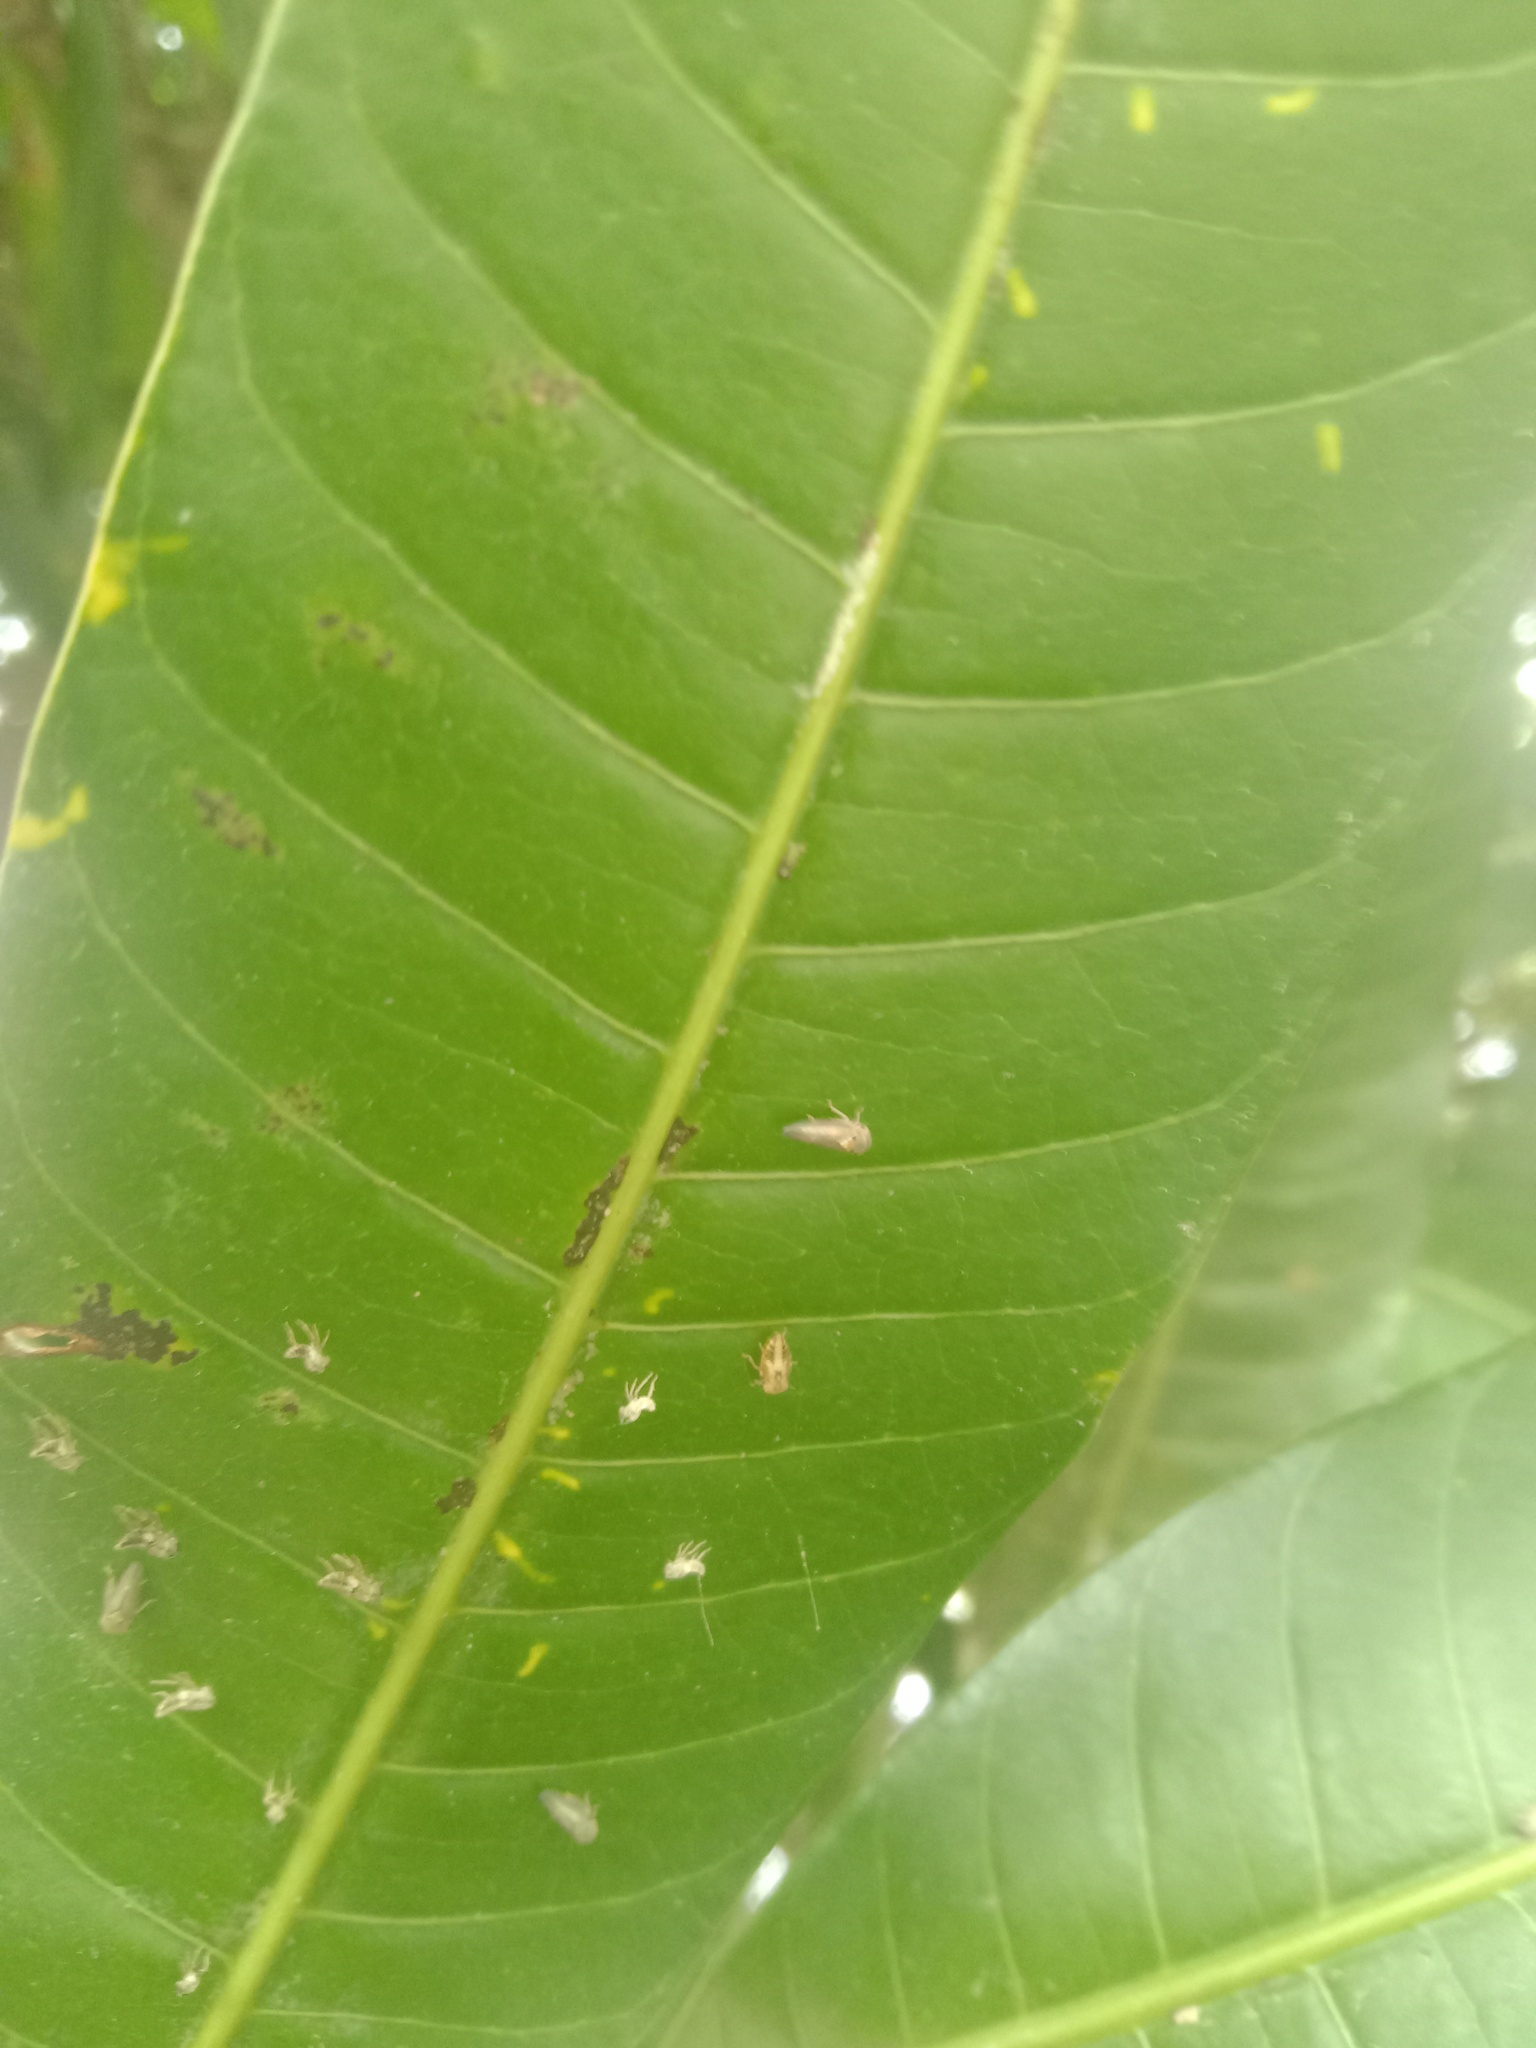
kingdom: Animalia
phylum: Arthropoda
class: Insecta
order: Hemiptera
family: Cicadellidae
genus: Idioscopus
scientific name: Idioscopus clypealis
